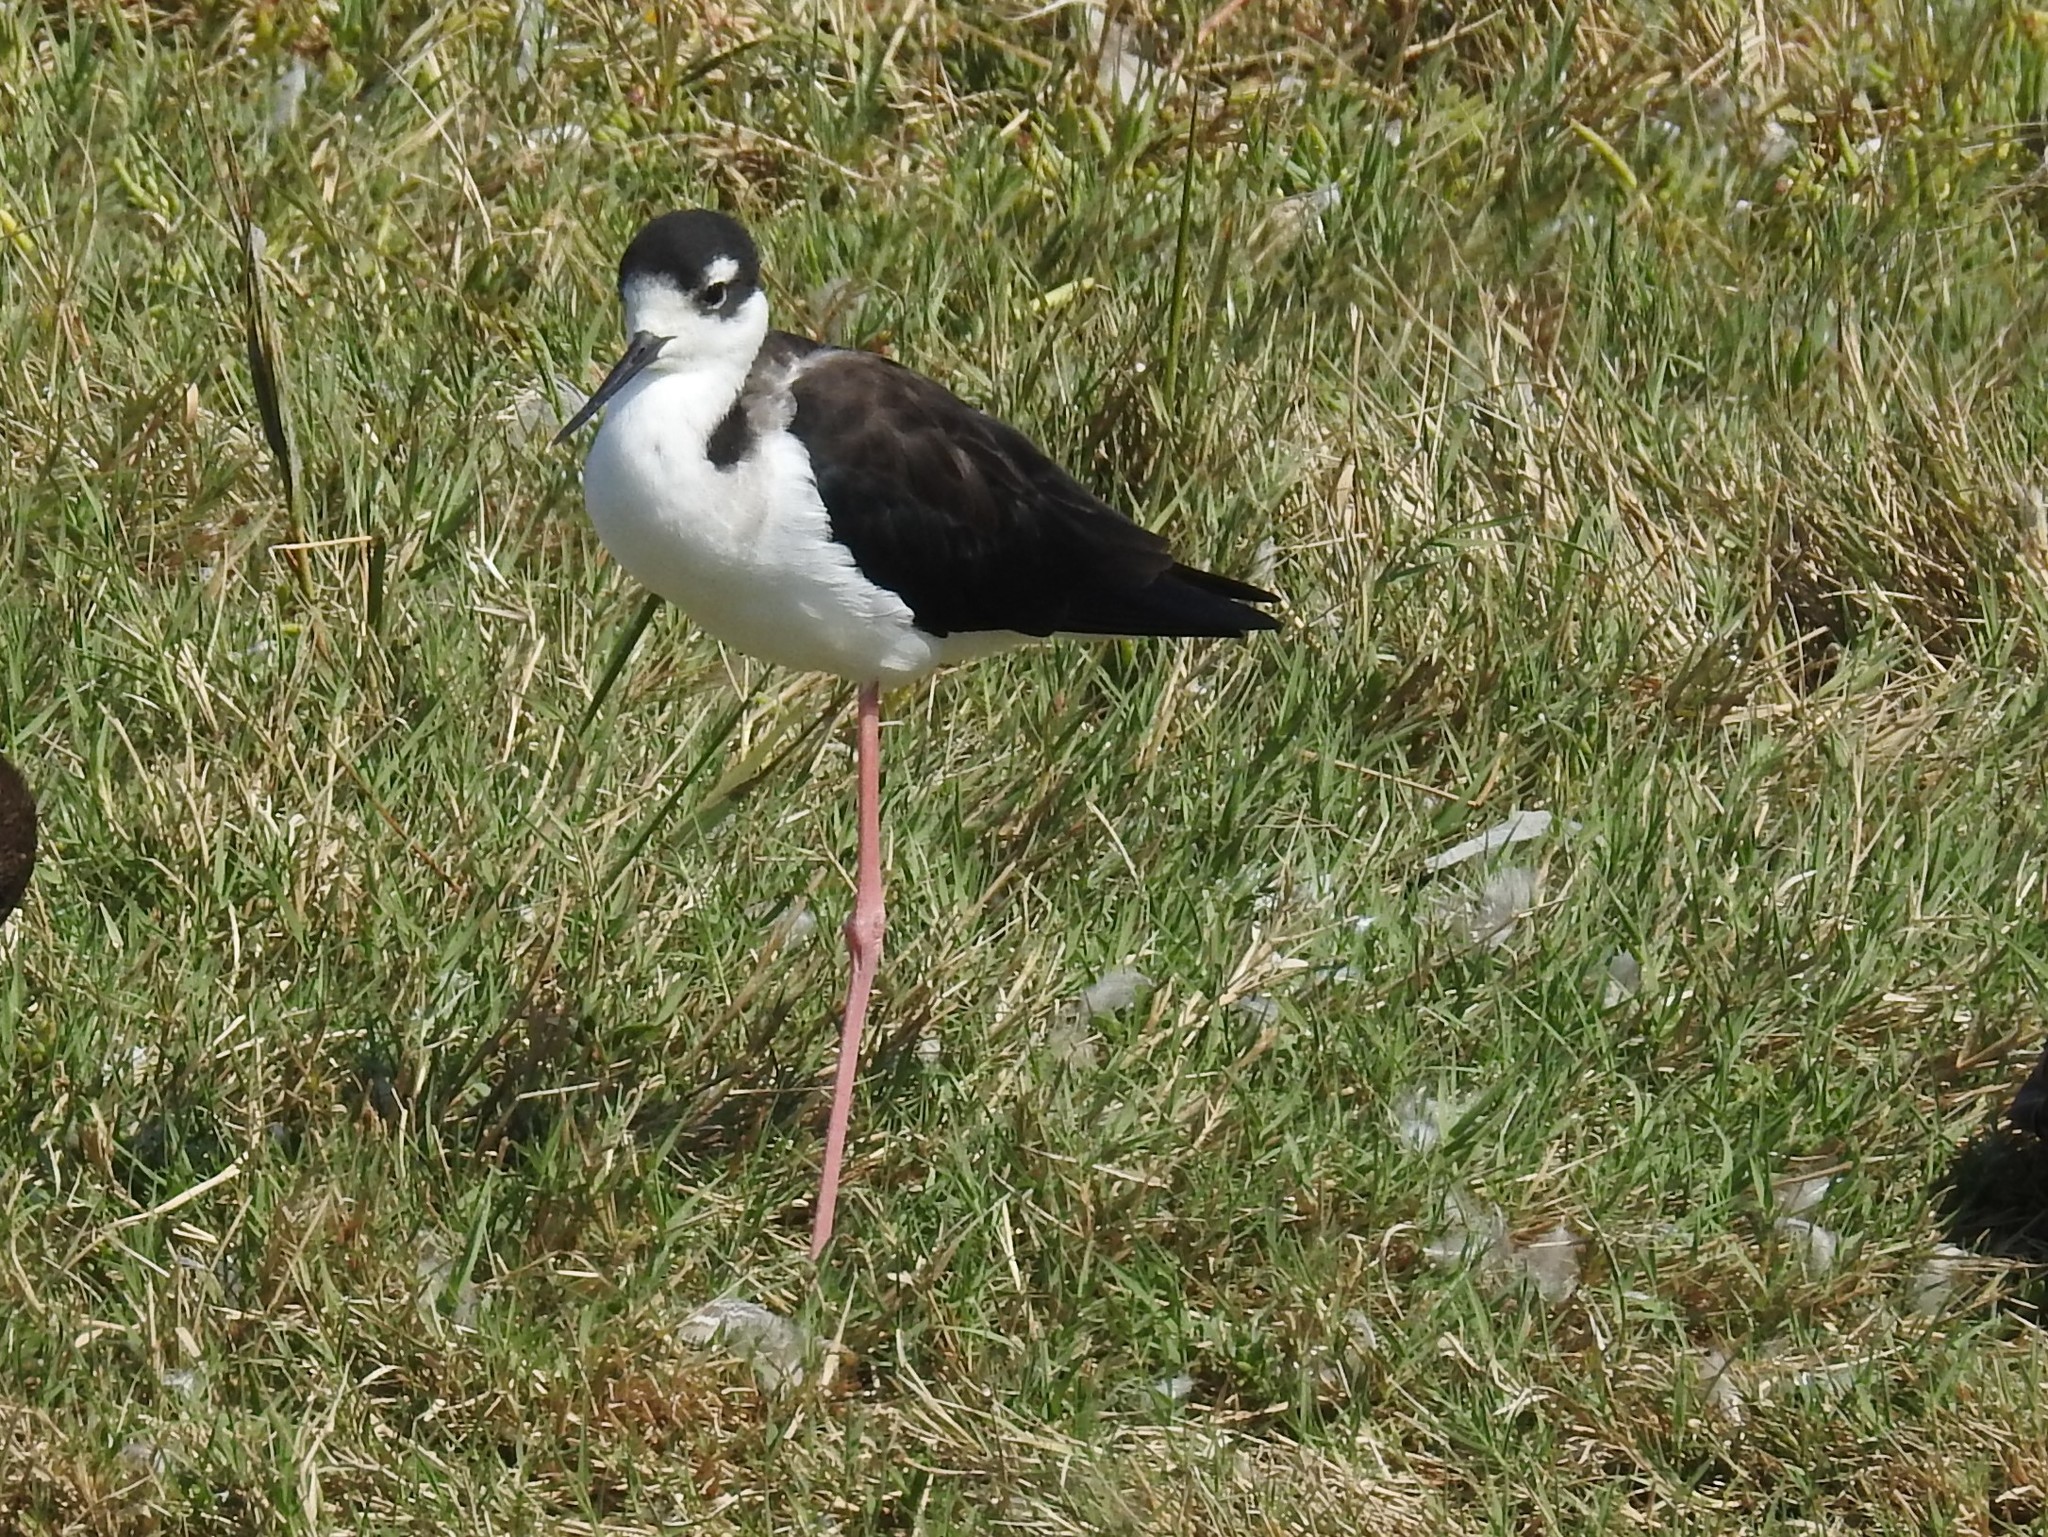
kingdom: Animalia
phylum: Chordata
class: Aves
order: Charadriiformes
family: Recurvirostridae
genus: Himantopus
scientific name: Himantopus mexicanus
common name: Black-necked stilt
